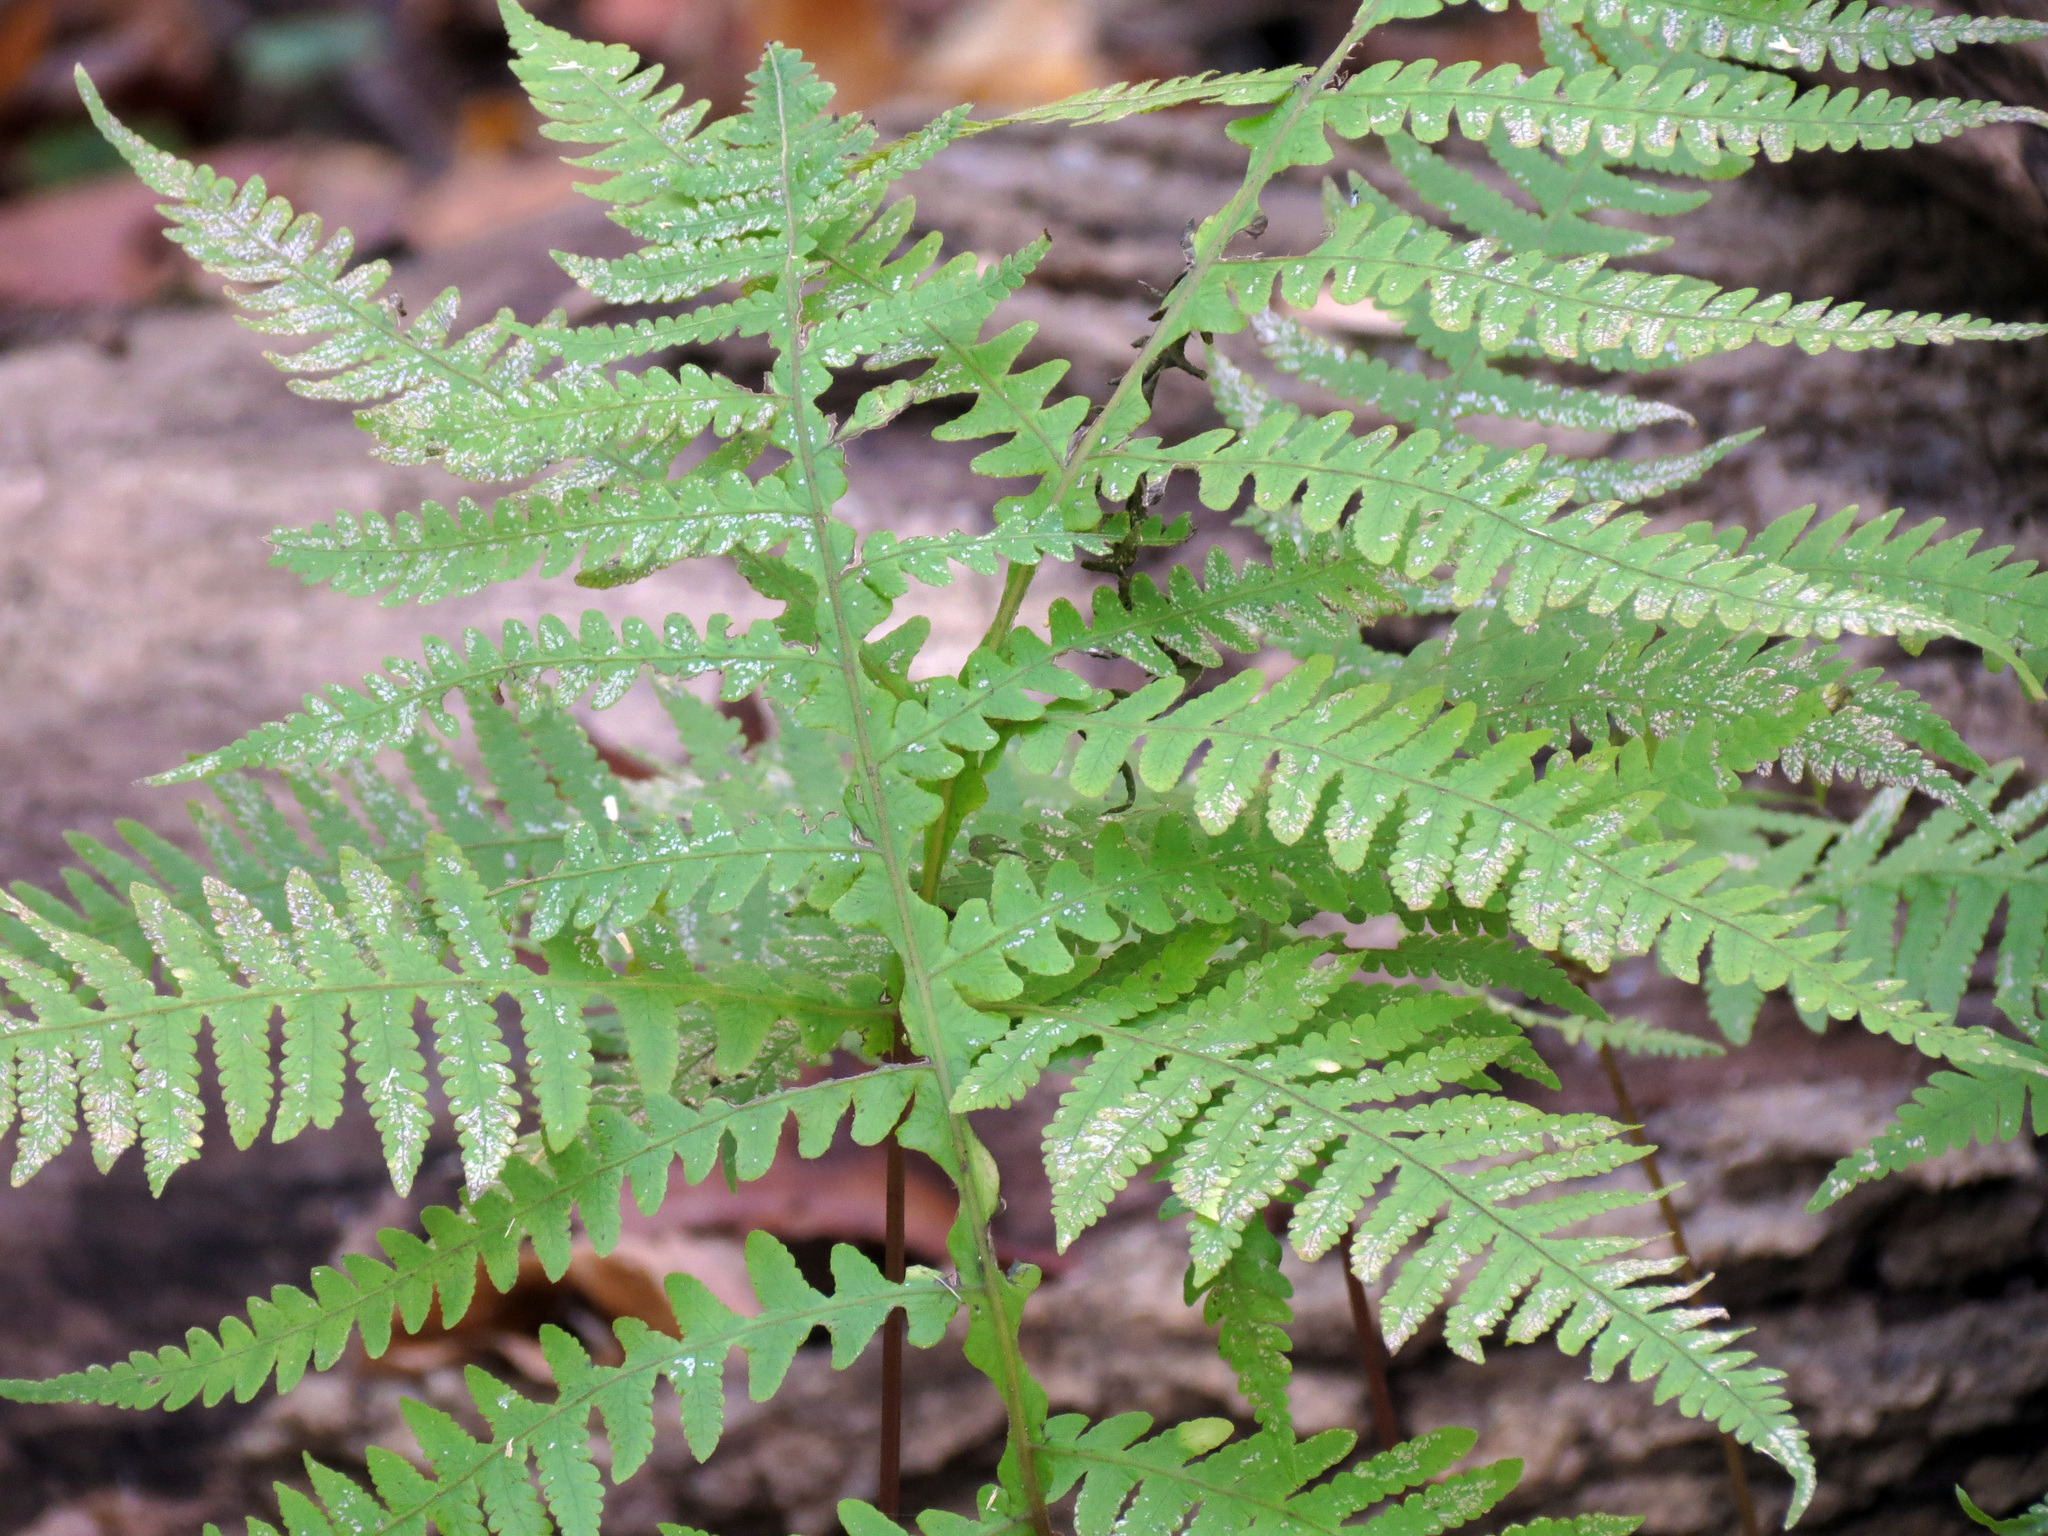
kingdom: Plantae
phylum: Tracheophyta
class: Polypodiopsida
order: Polypodiales
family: Thelypteridaceae
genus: Phegopteris
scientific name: Phegopteris hexagonoptera
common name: Broad beech fern
